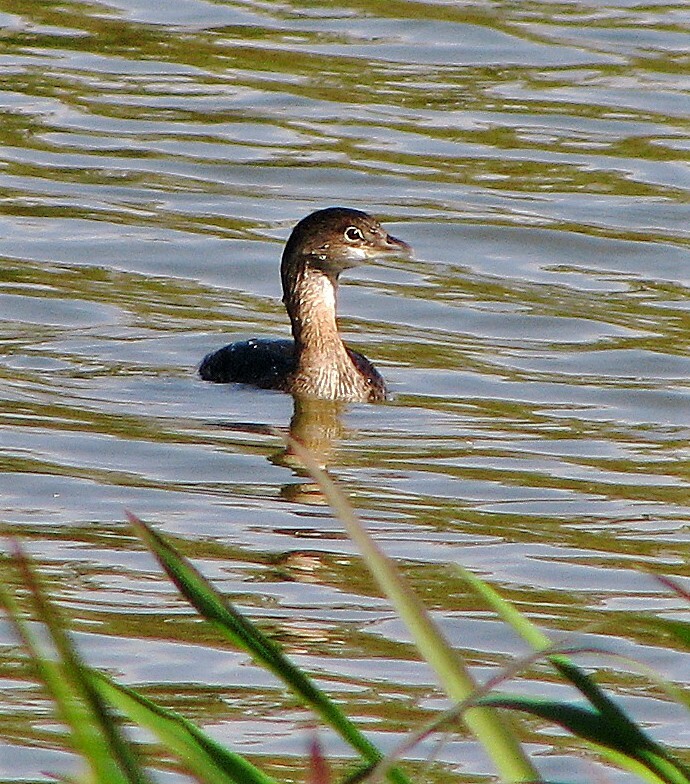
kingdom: Animalia
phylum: Chordata
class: Aves
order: Podicipediformes
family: Podicipedidae
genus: Podilymbus
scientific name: Podilymbus podiceps
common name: Pied-billed grebe
